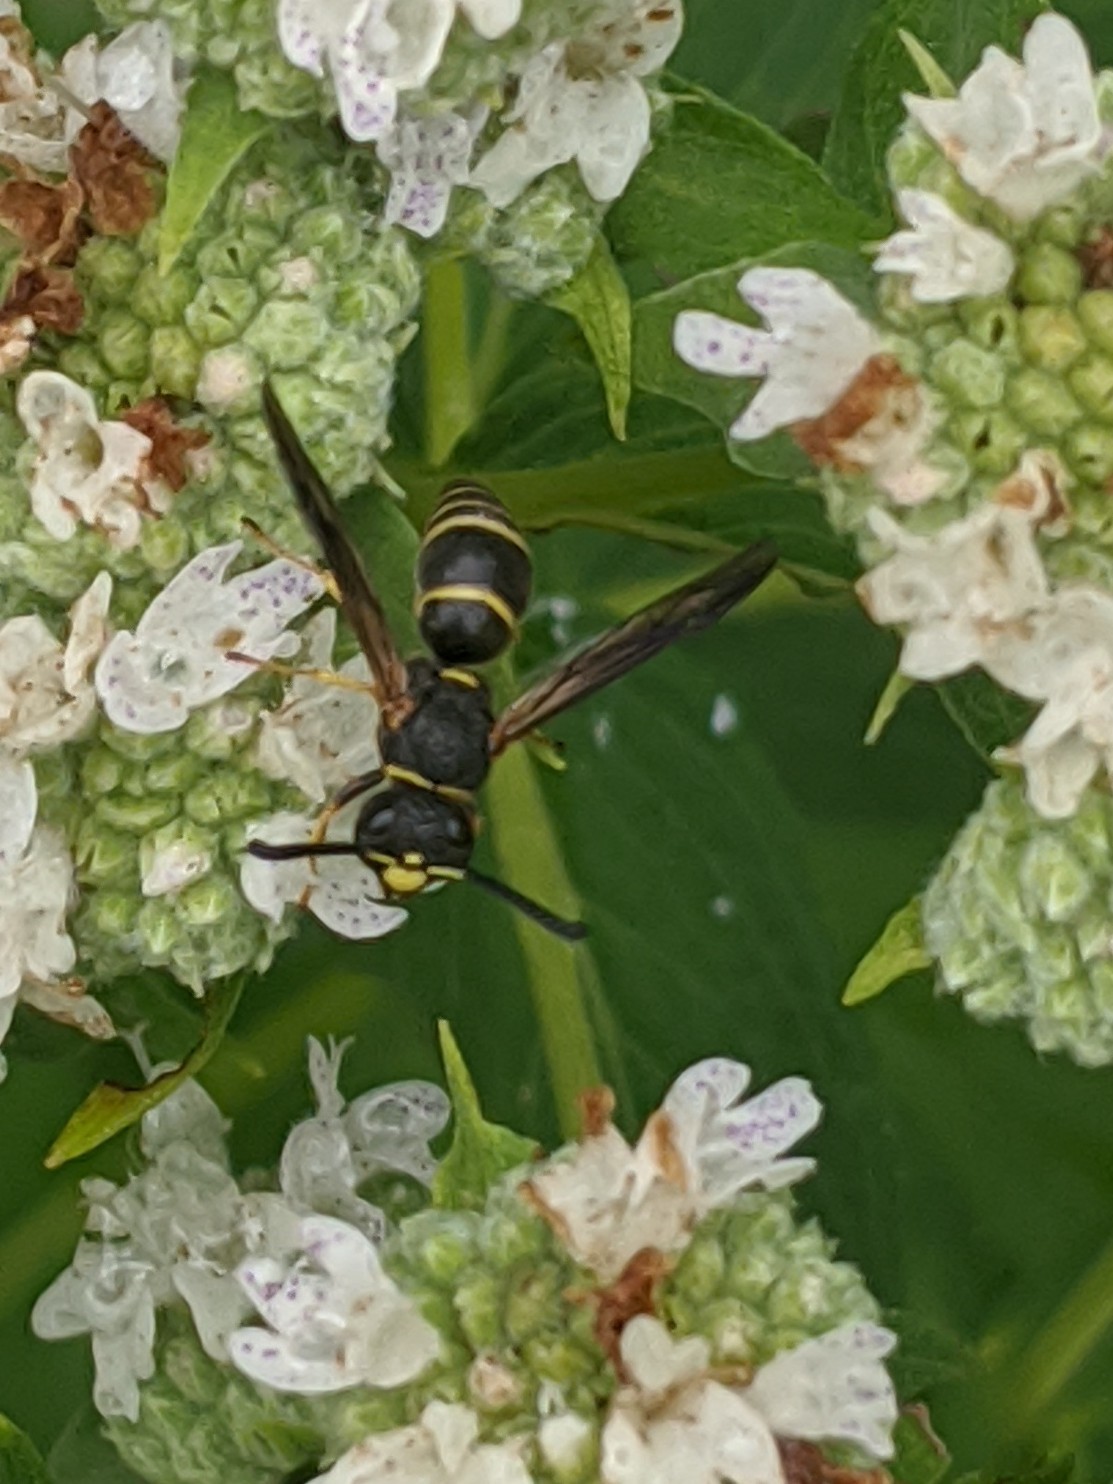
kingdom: Animalia
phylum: Arthropoda
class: Insecta
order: Hymenoptera
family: Eumenidae
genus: Euodynerus
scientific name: Euodynerus foraminatus
